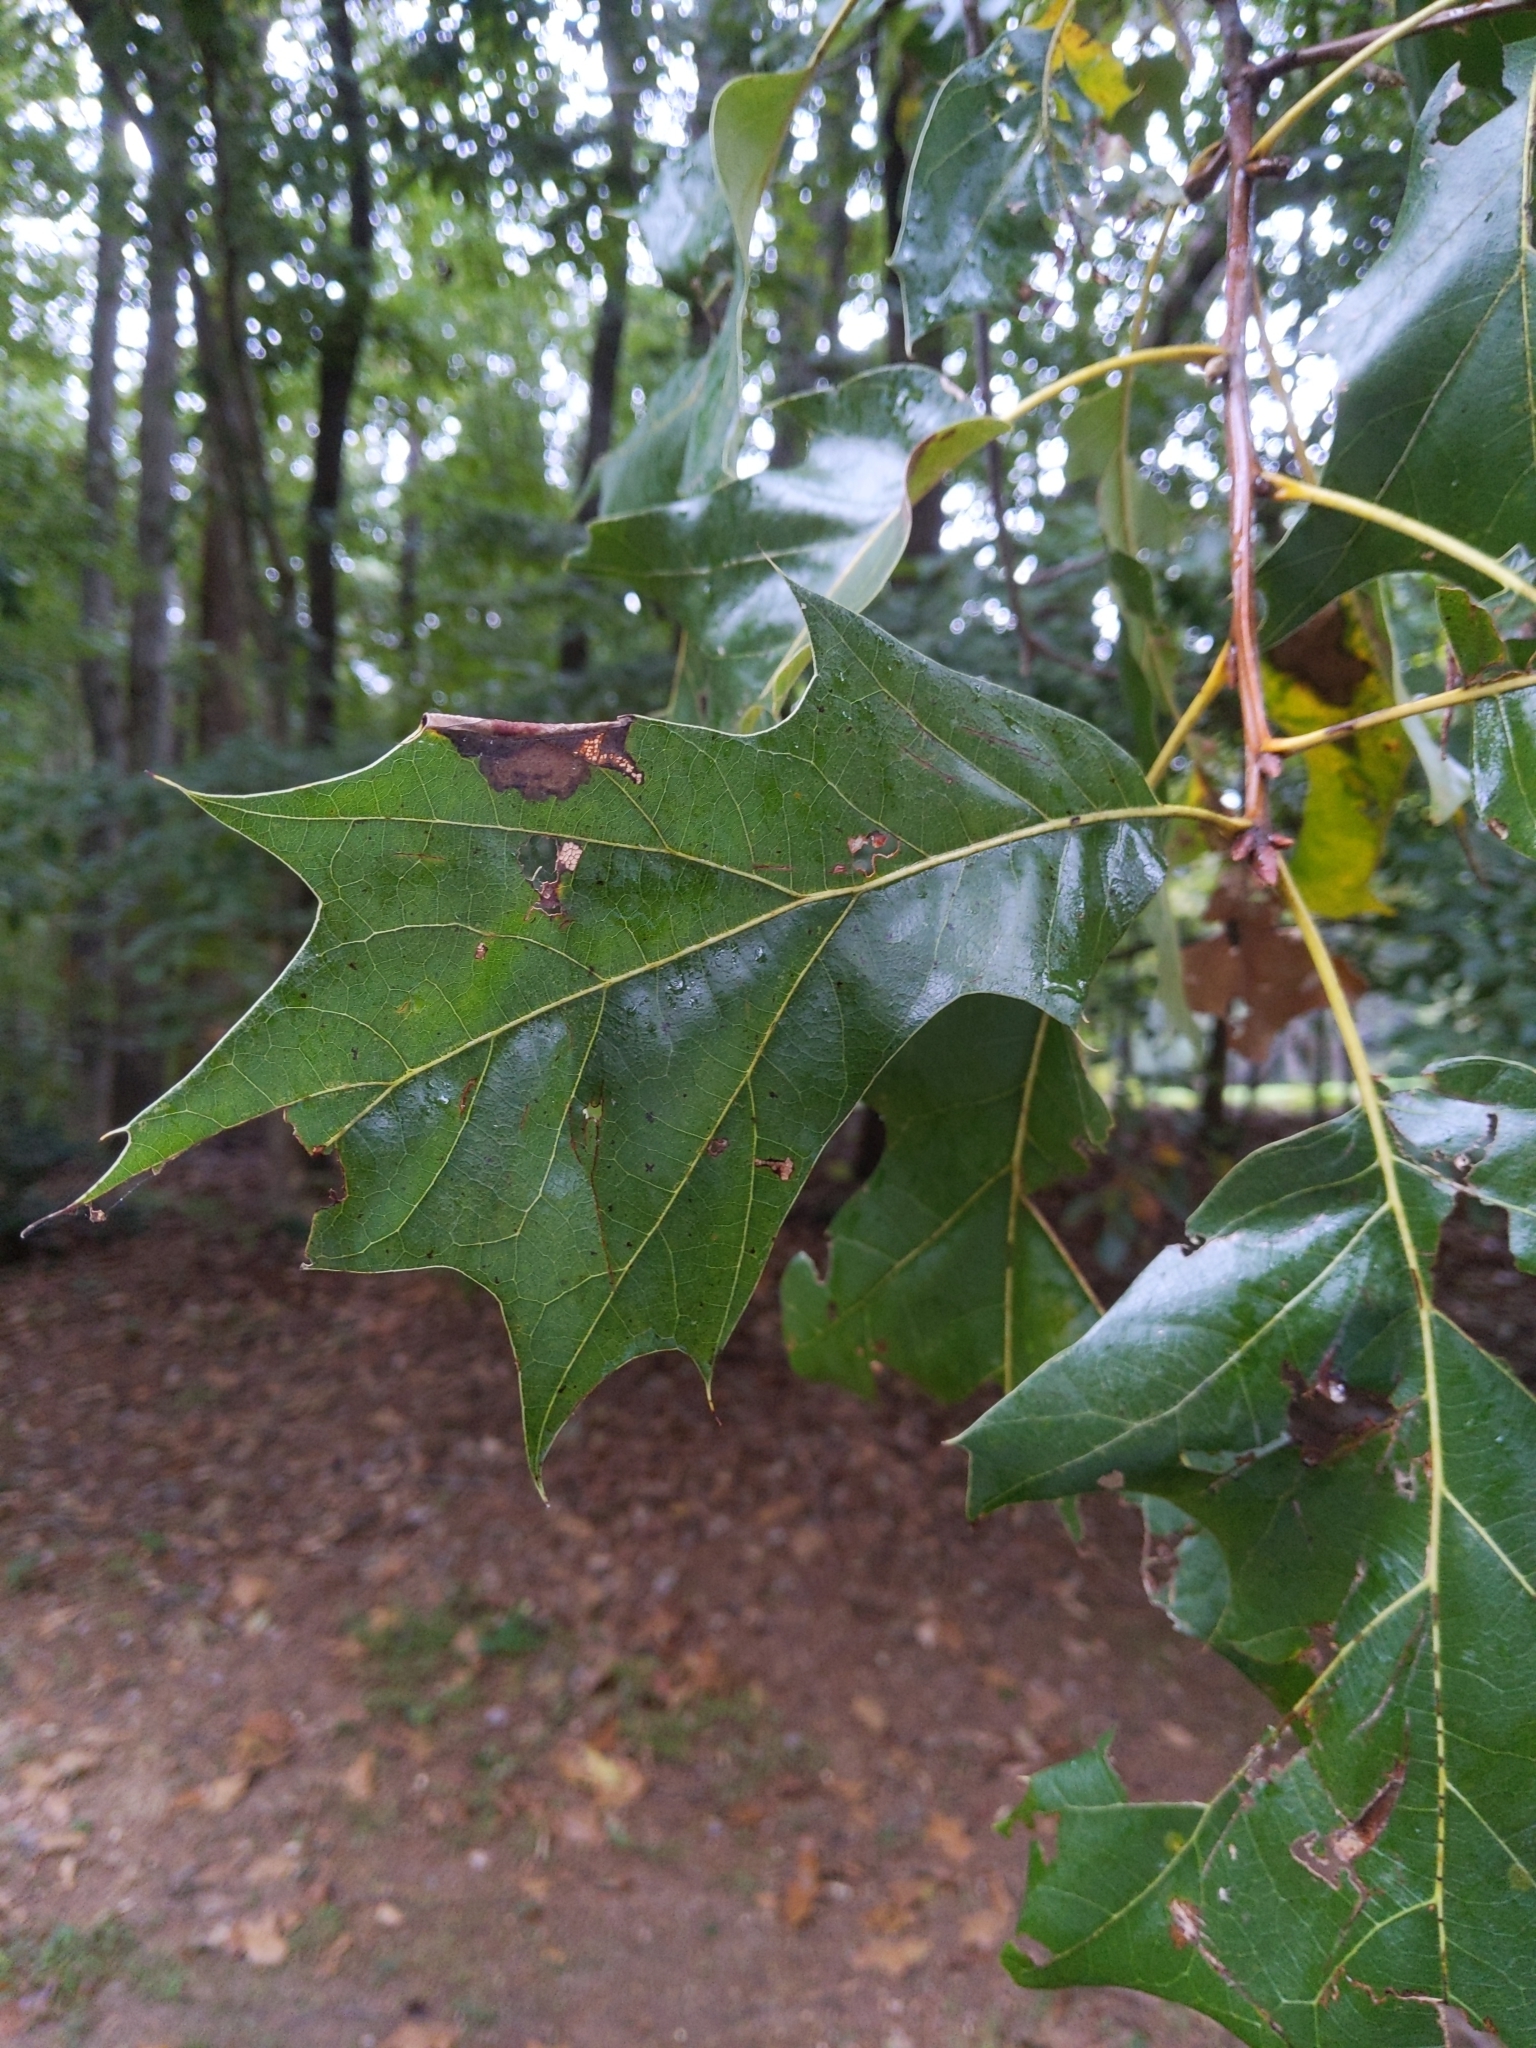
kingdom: Plantae
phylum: Tracheophyta
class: Magnoliopsida
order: Fagales
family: Fagaceae
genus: Quercus
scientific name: Quercus velutina
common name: Black oak
